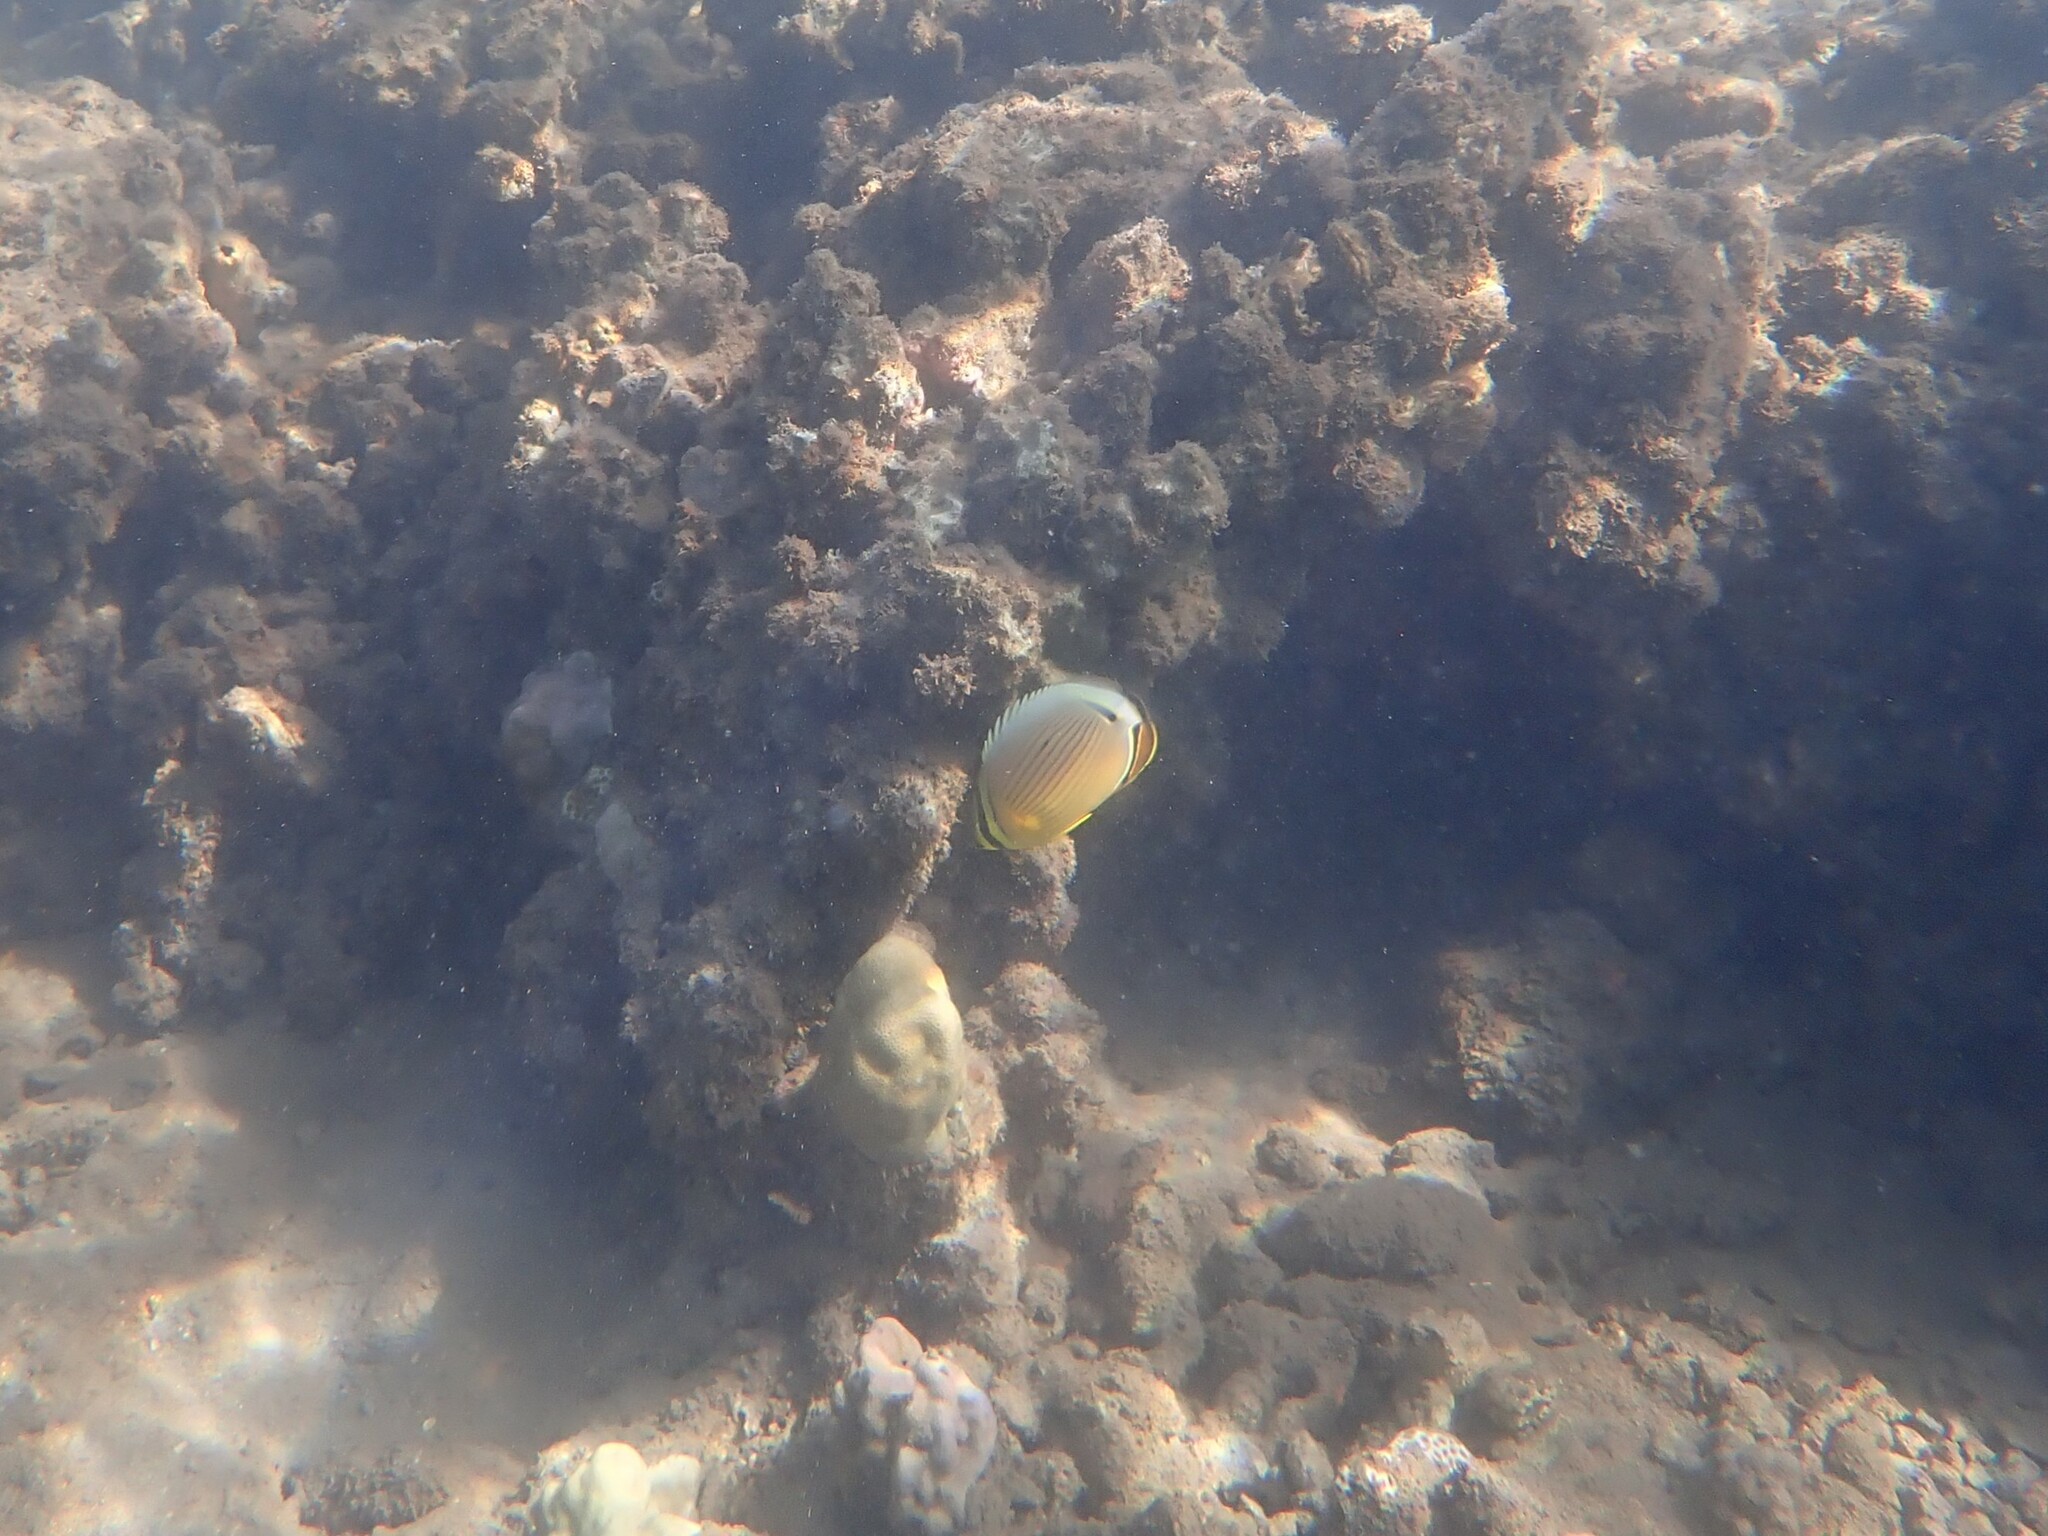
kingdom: Animalia
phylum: Chordata
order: Perciformes
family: Chaetodontidae
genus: Chaetodon
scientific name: Chaetodon lunulatus
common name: Redfin butterflyfish
